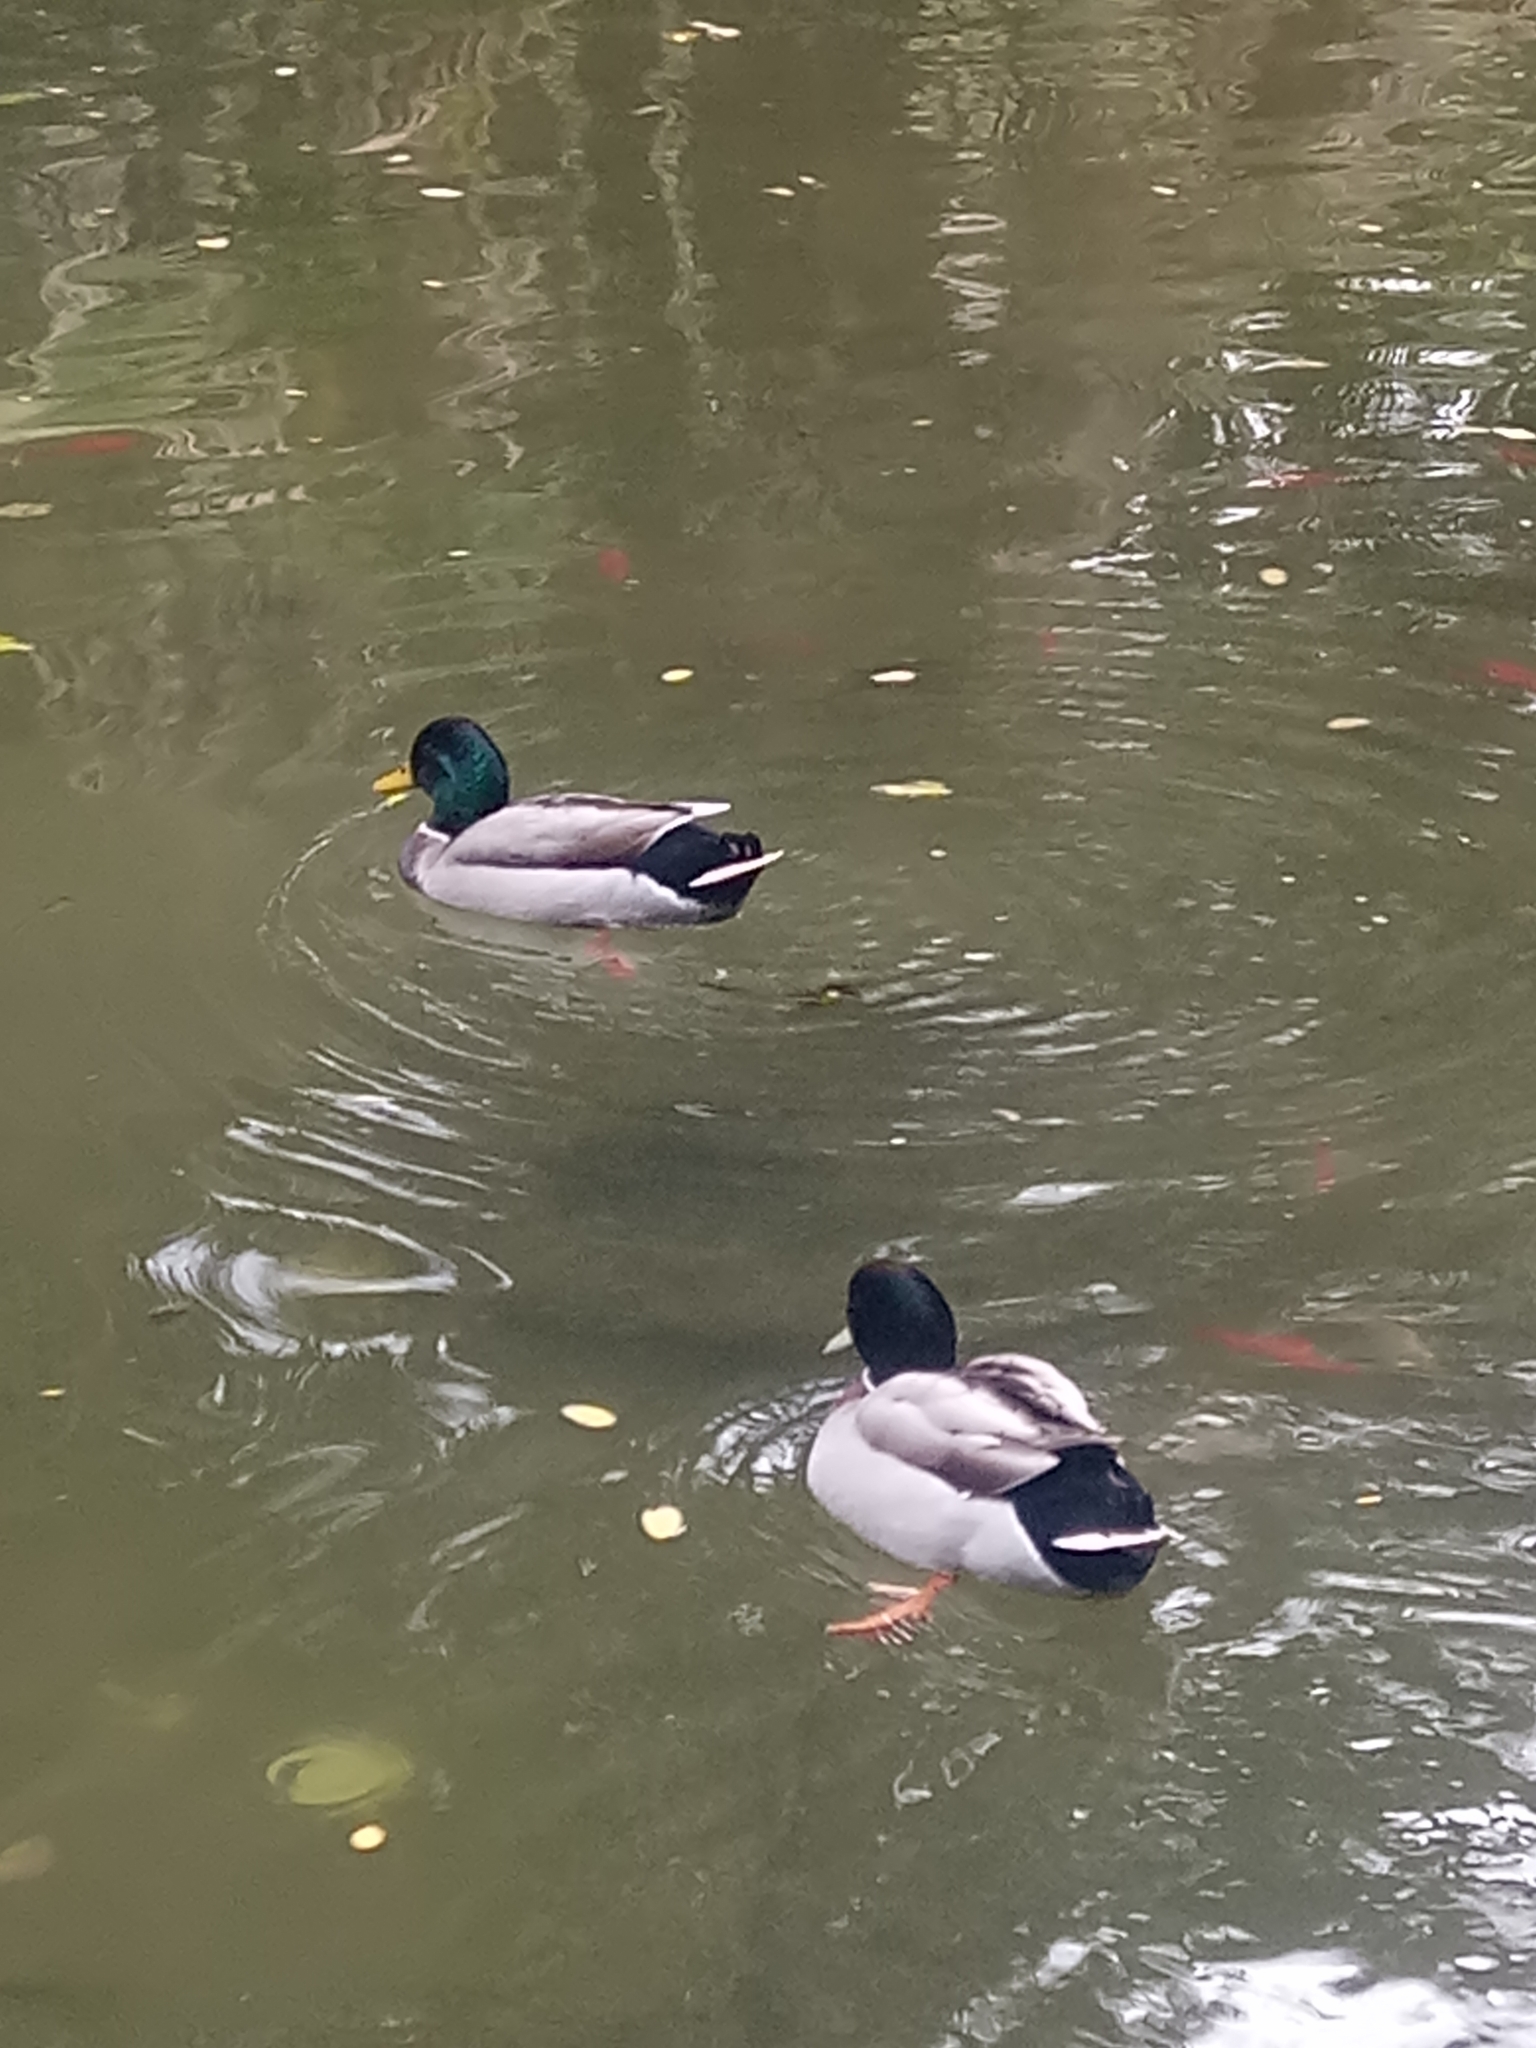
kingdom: Animalia
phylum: Chordata
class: Aves
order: Anseriformes
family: Anatidae
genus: Anas
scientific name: Anas platyrhynchos
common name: Mallard
